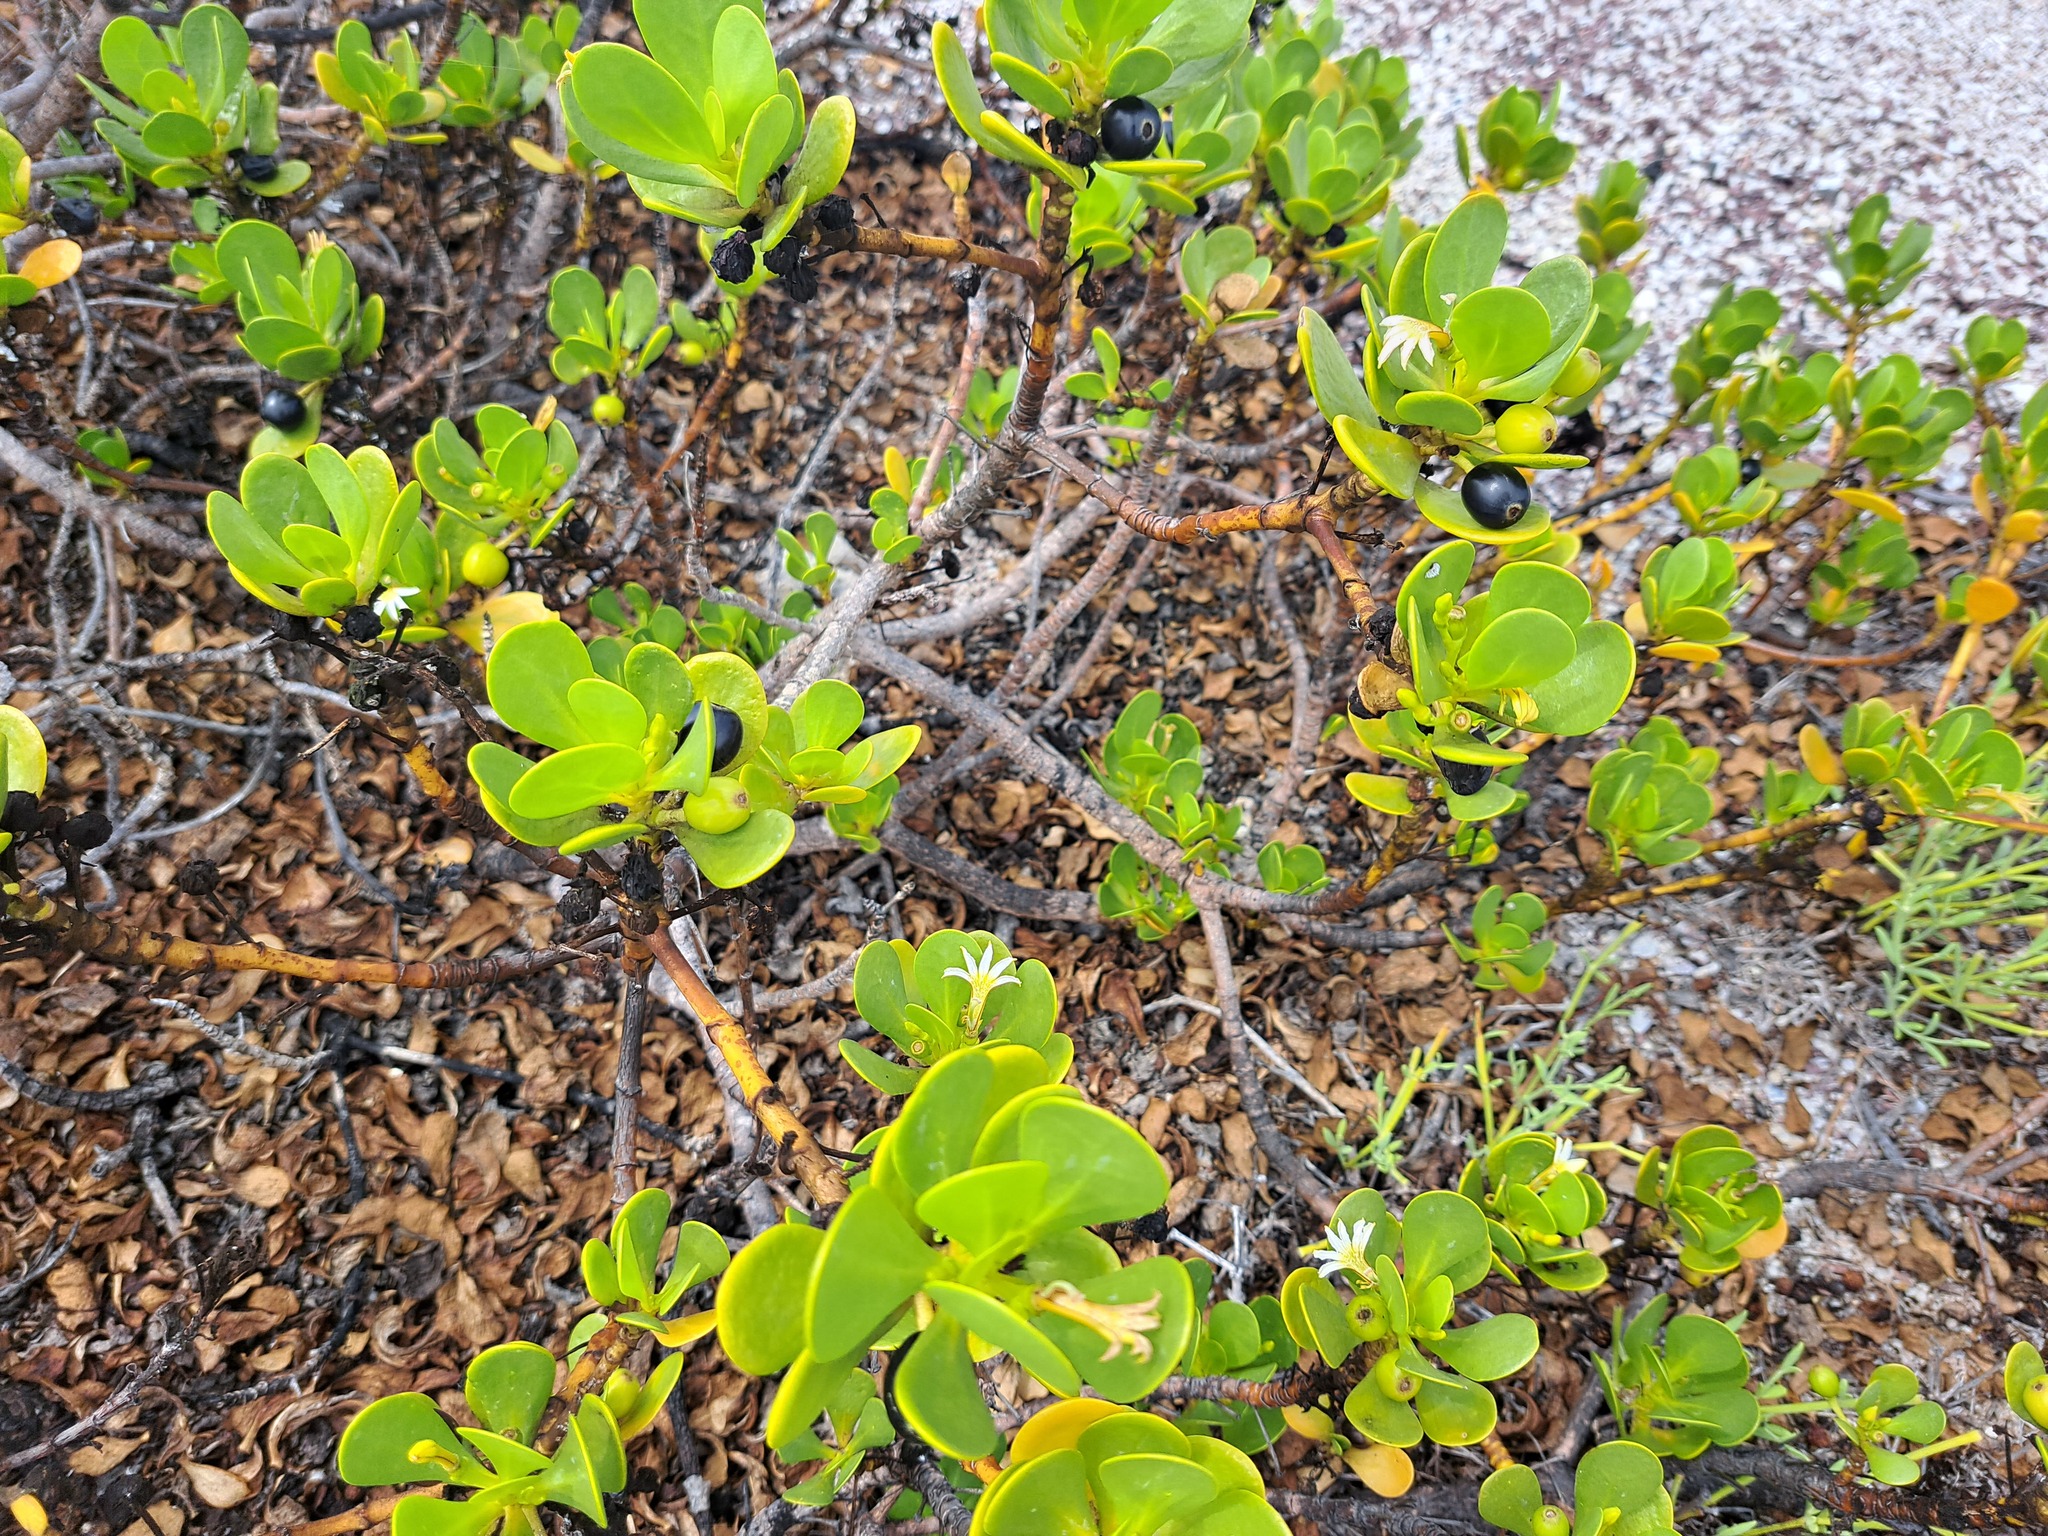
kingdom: Plantae
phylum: Tracheophyta
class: Magnoliopsida
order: Asterales
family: Goodeniaceae
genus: Scaevola
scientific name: Scaevola plumieri
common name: Gull feed
